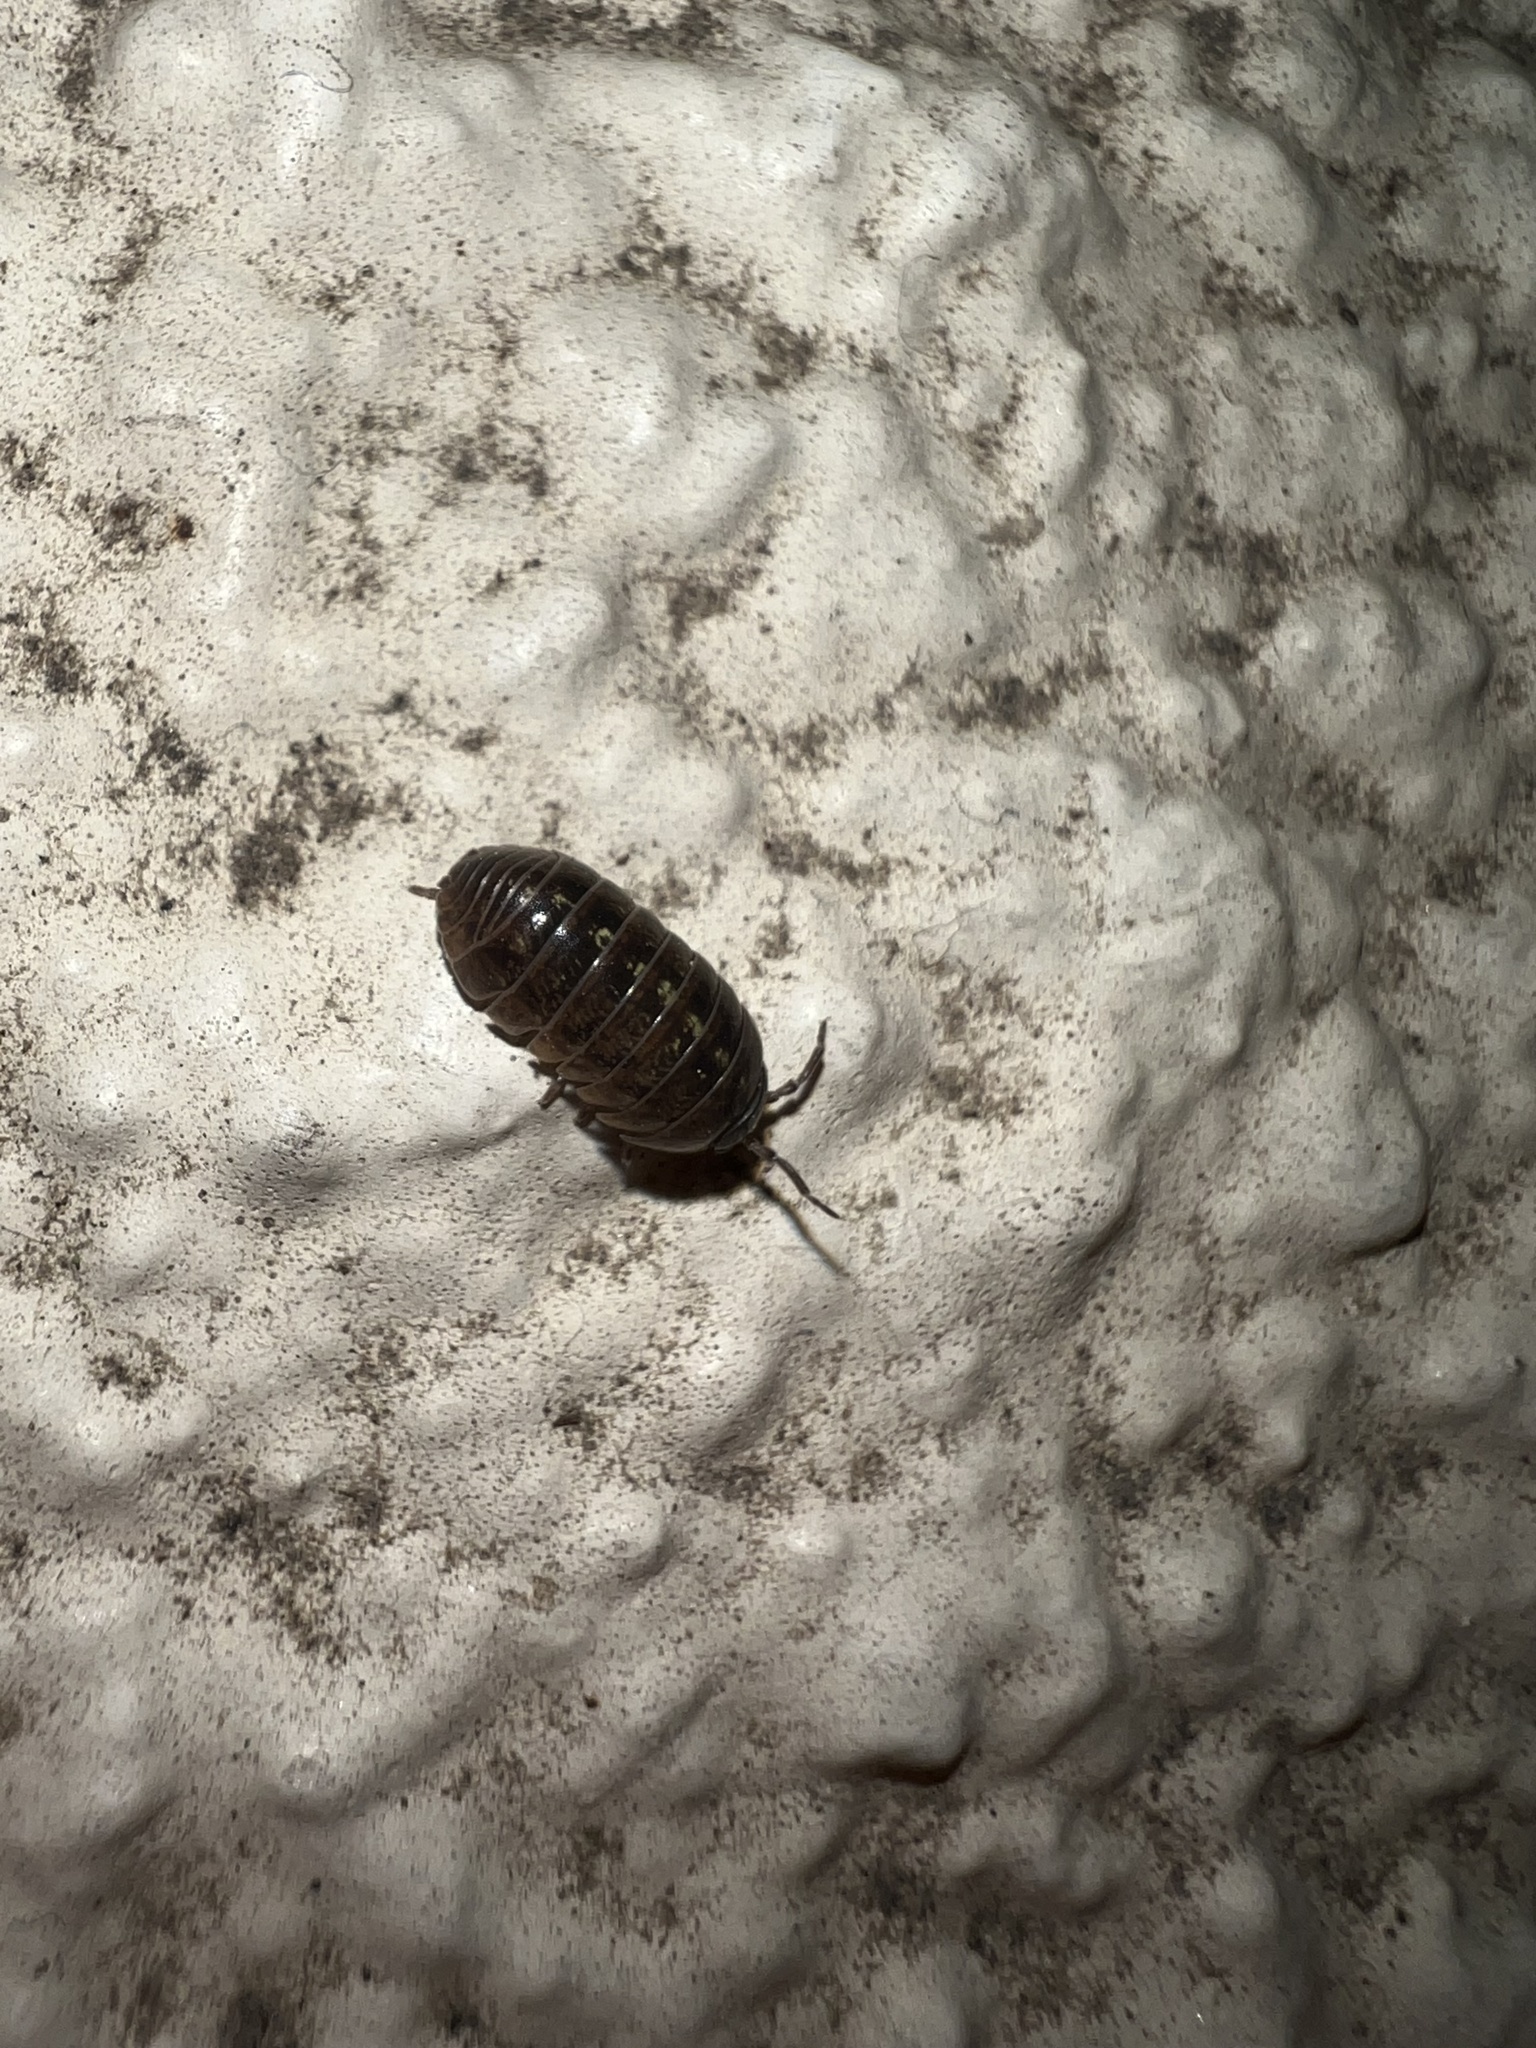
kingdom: Animalia
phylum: Arthropoda
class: Malacostraca
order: Isopoda
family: Armadillidiidae
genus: Armadillidium
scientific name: Armadillidium vulgare
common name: Common pill woodlouse
